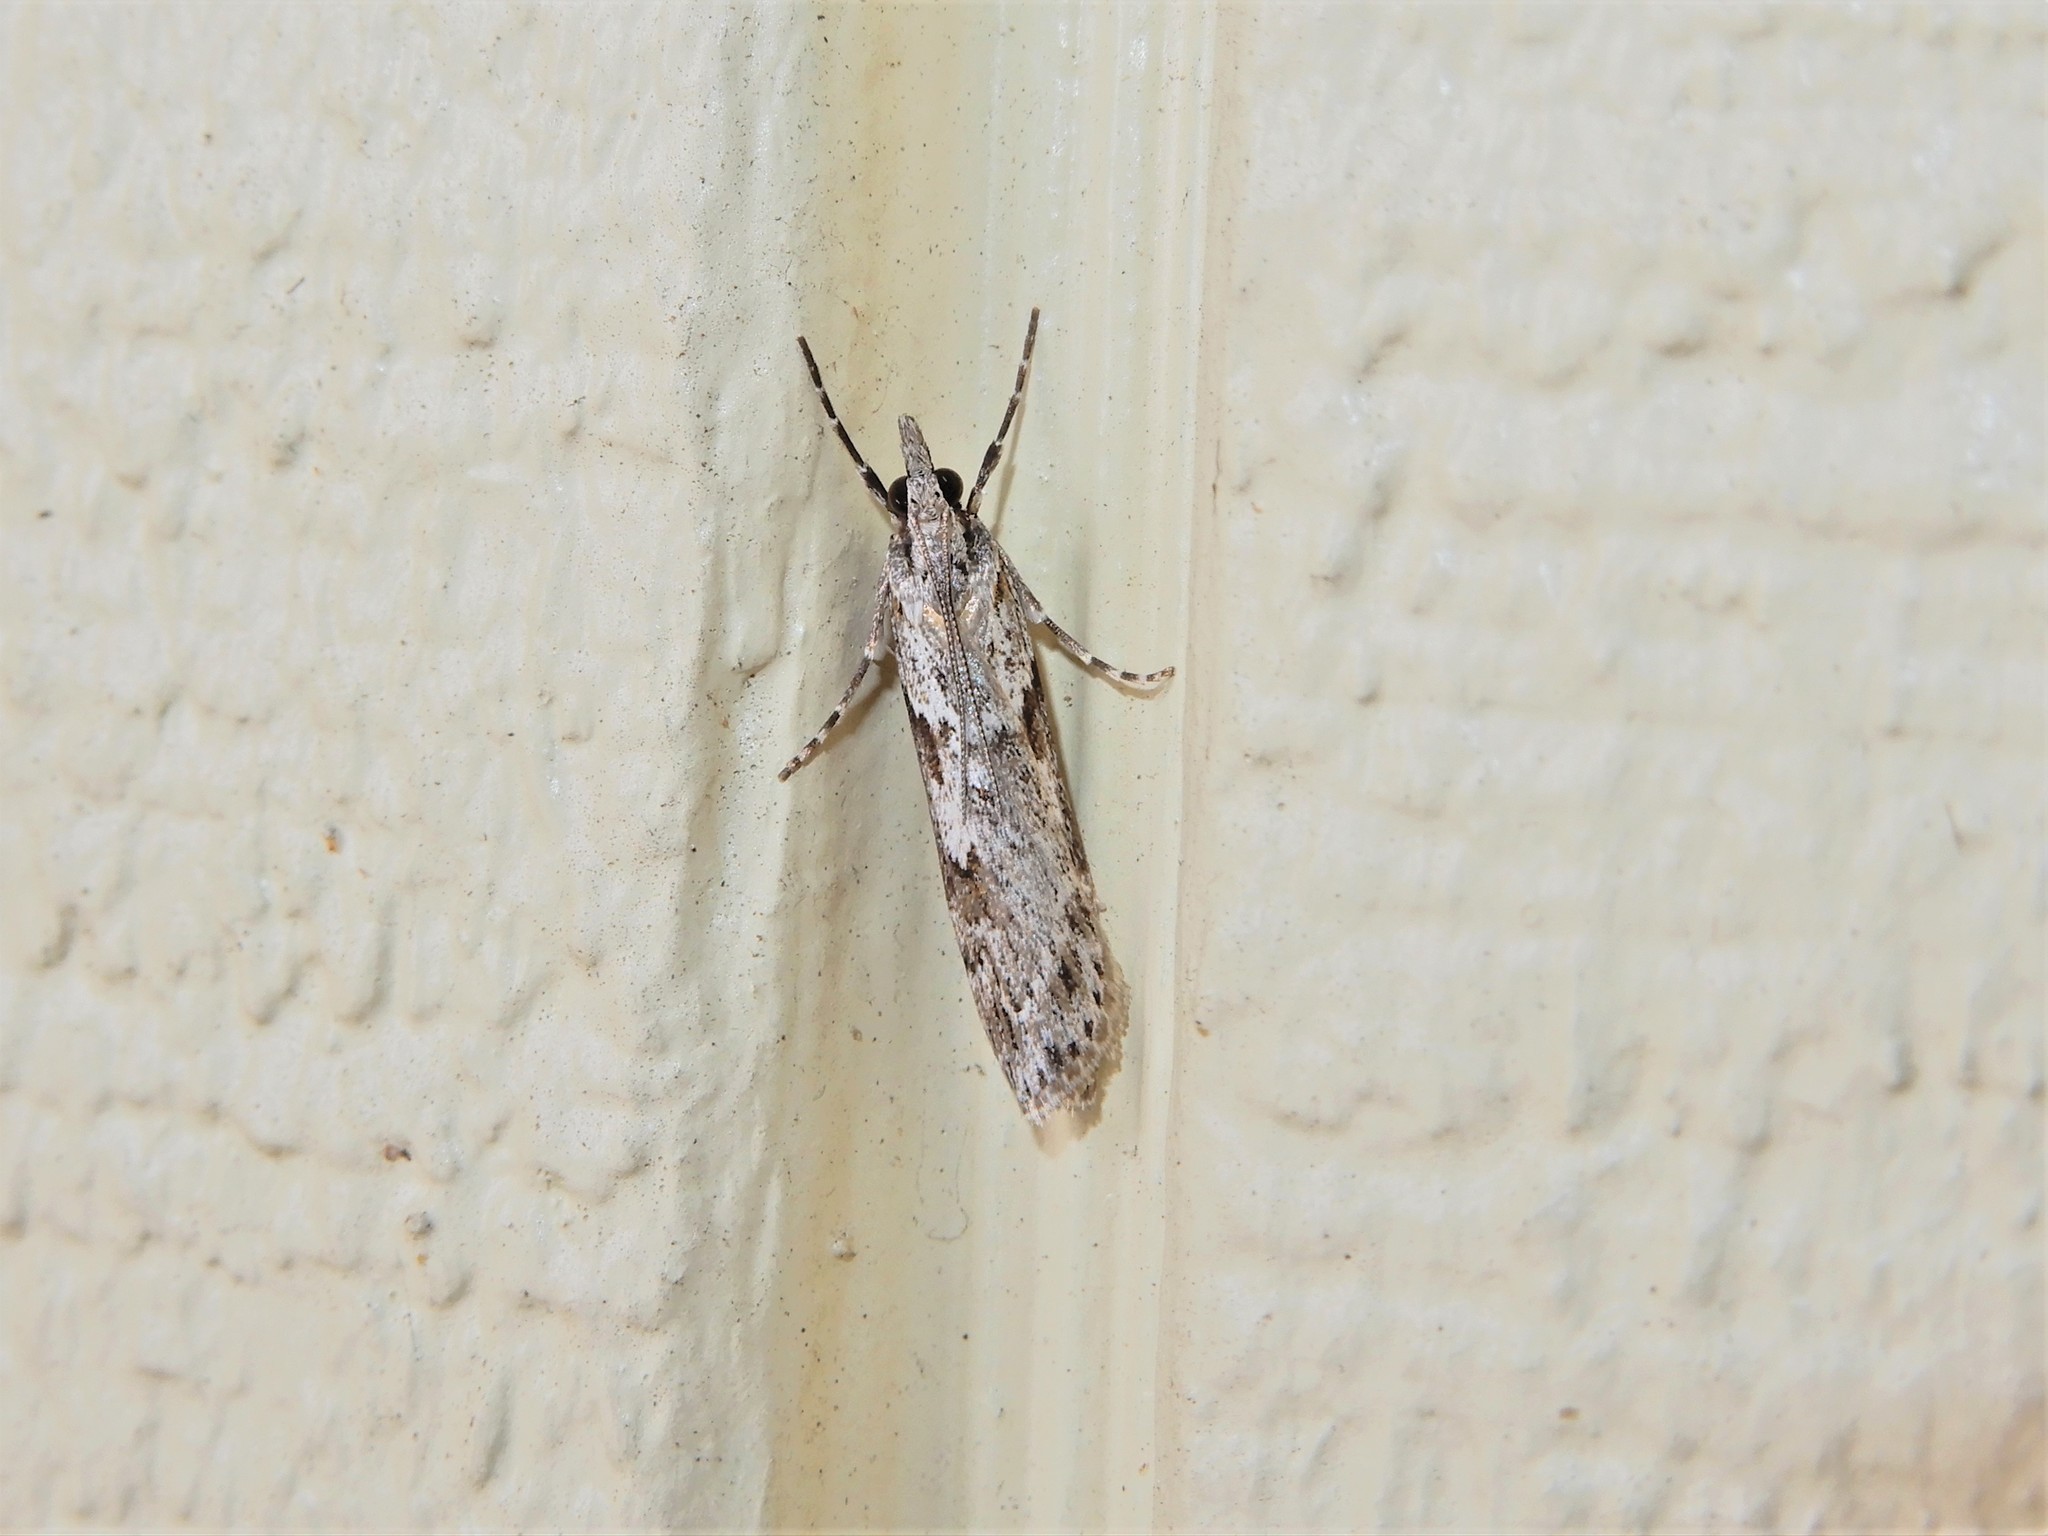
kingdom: Animalia
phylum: Arthropoda
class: Insecta
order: Lepidoptera
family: Crambidae
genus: Scoparia
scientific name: Scoparia halopis
